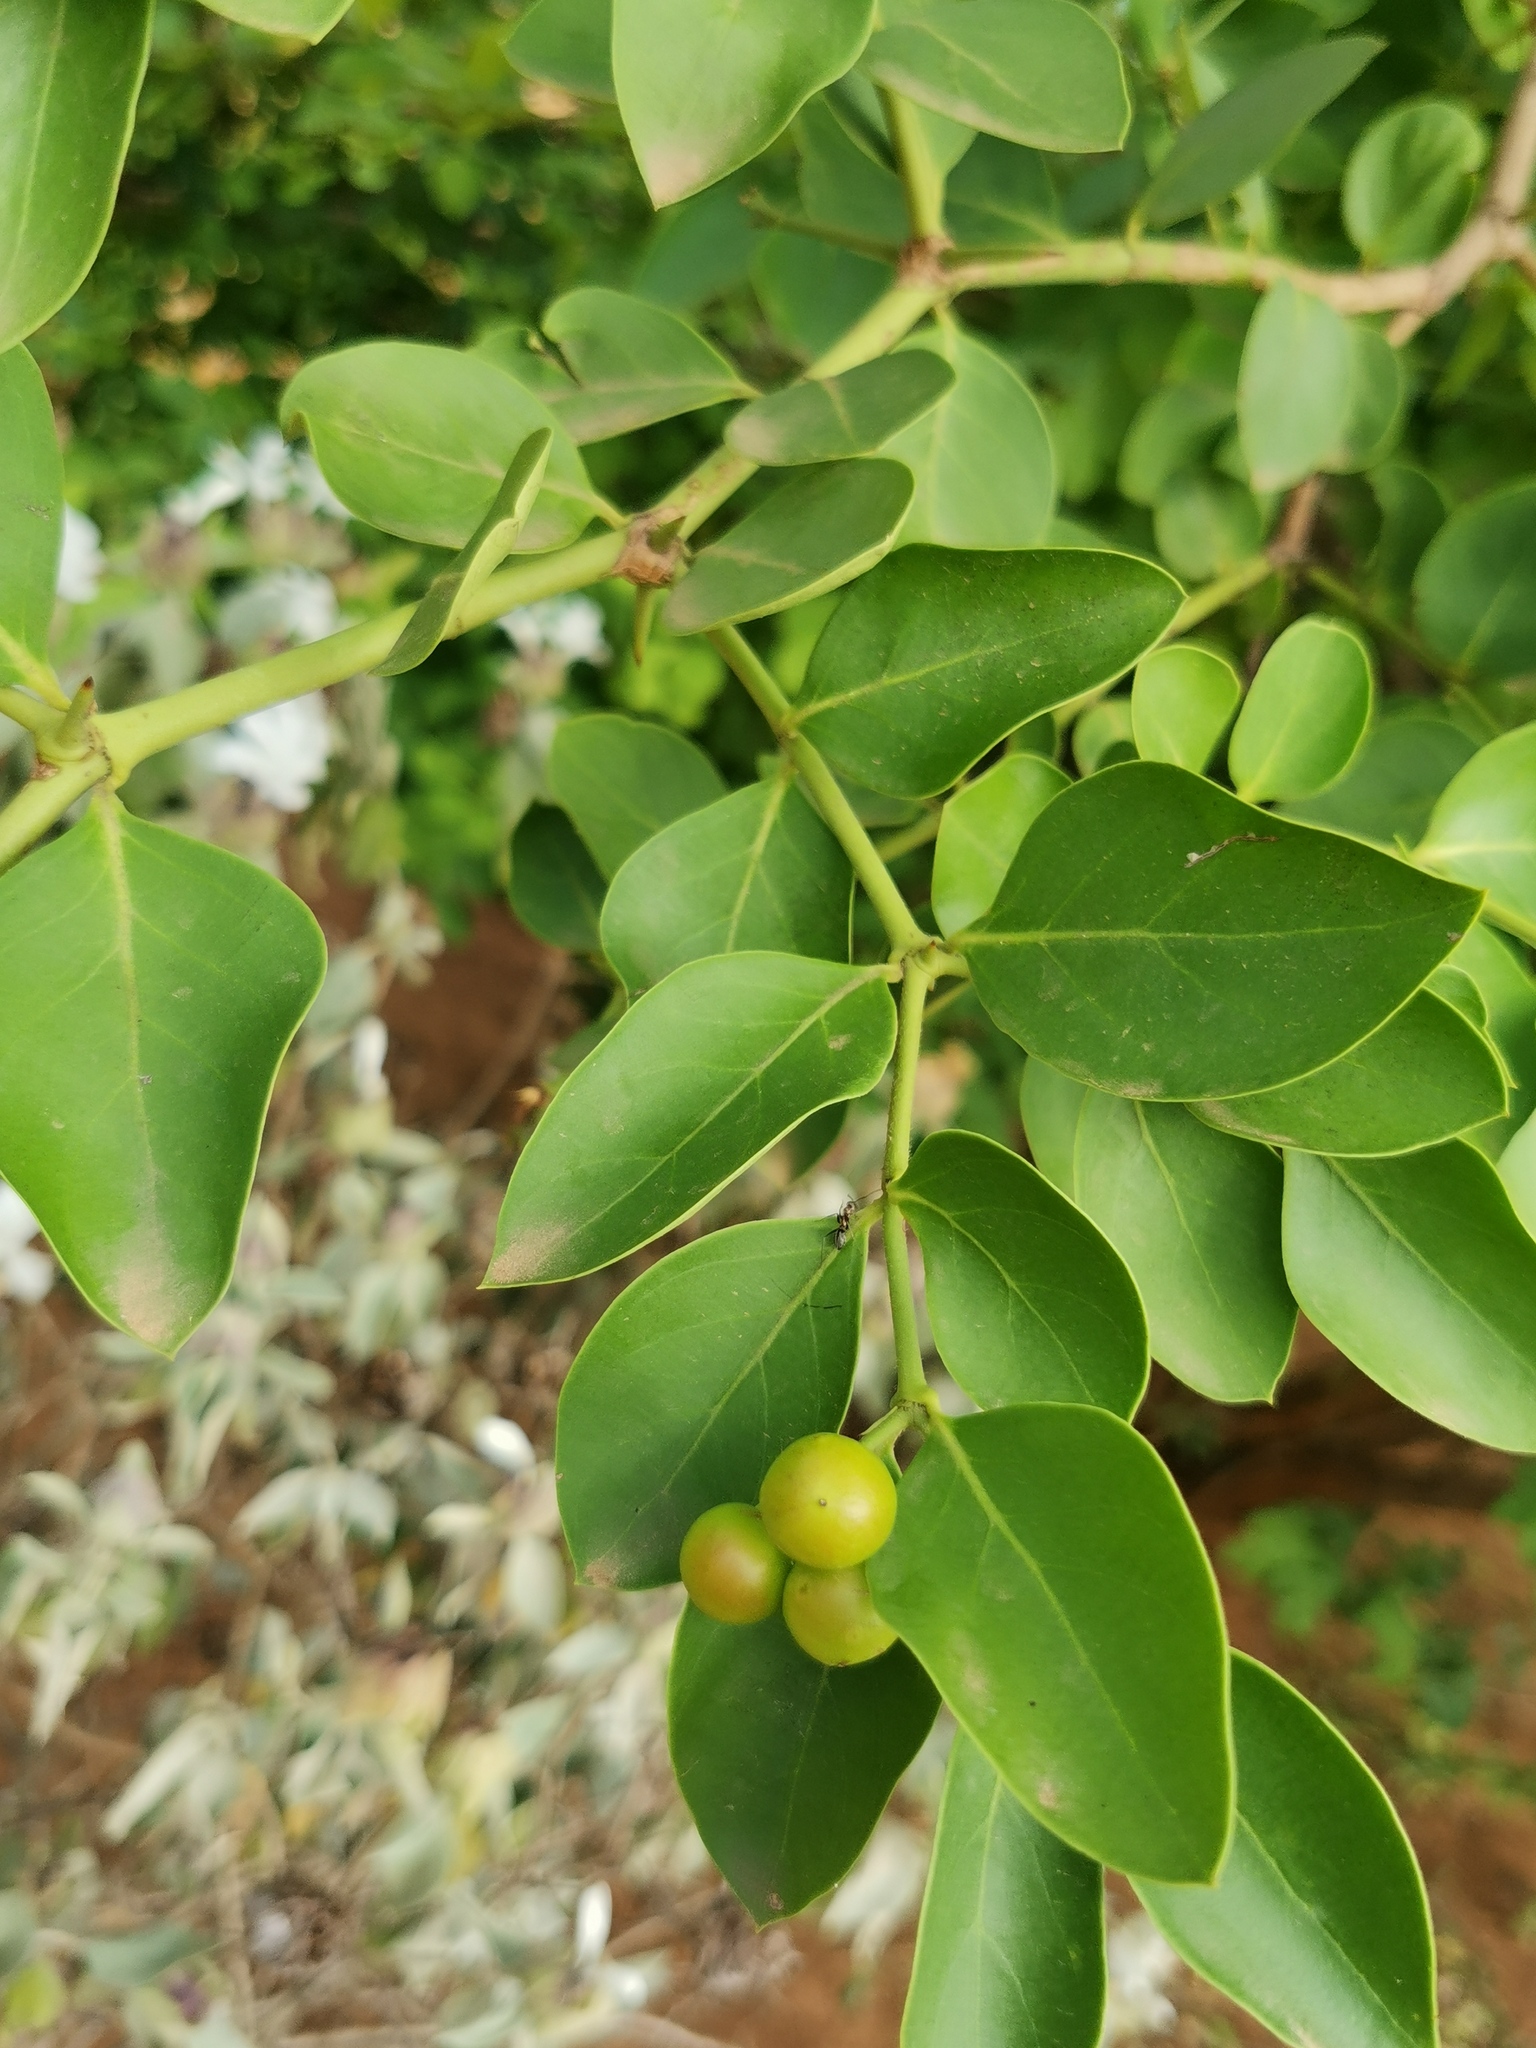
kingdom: Plantae
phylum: Tracheophyta
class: Magnoliopsida
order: Gentianales
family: Apocynaceae
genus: Carissa
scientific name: Carissa spinarum
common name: Egyptian carissa
